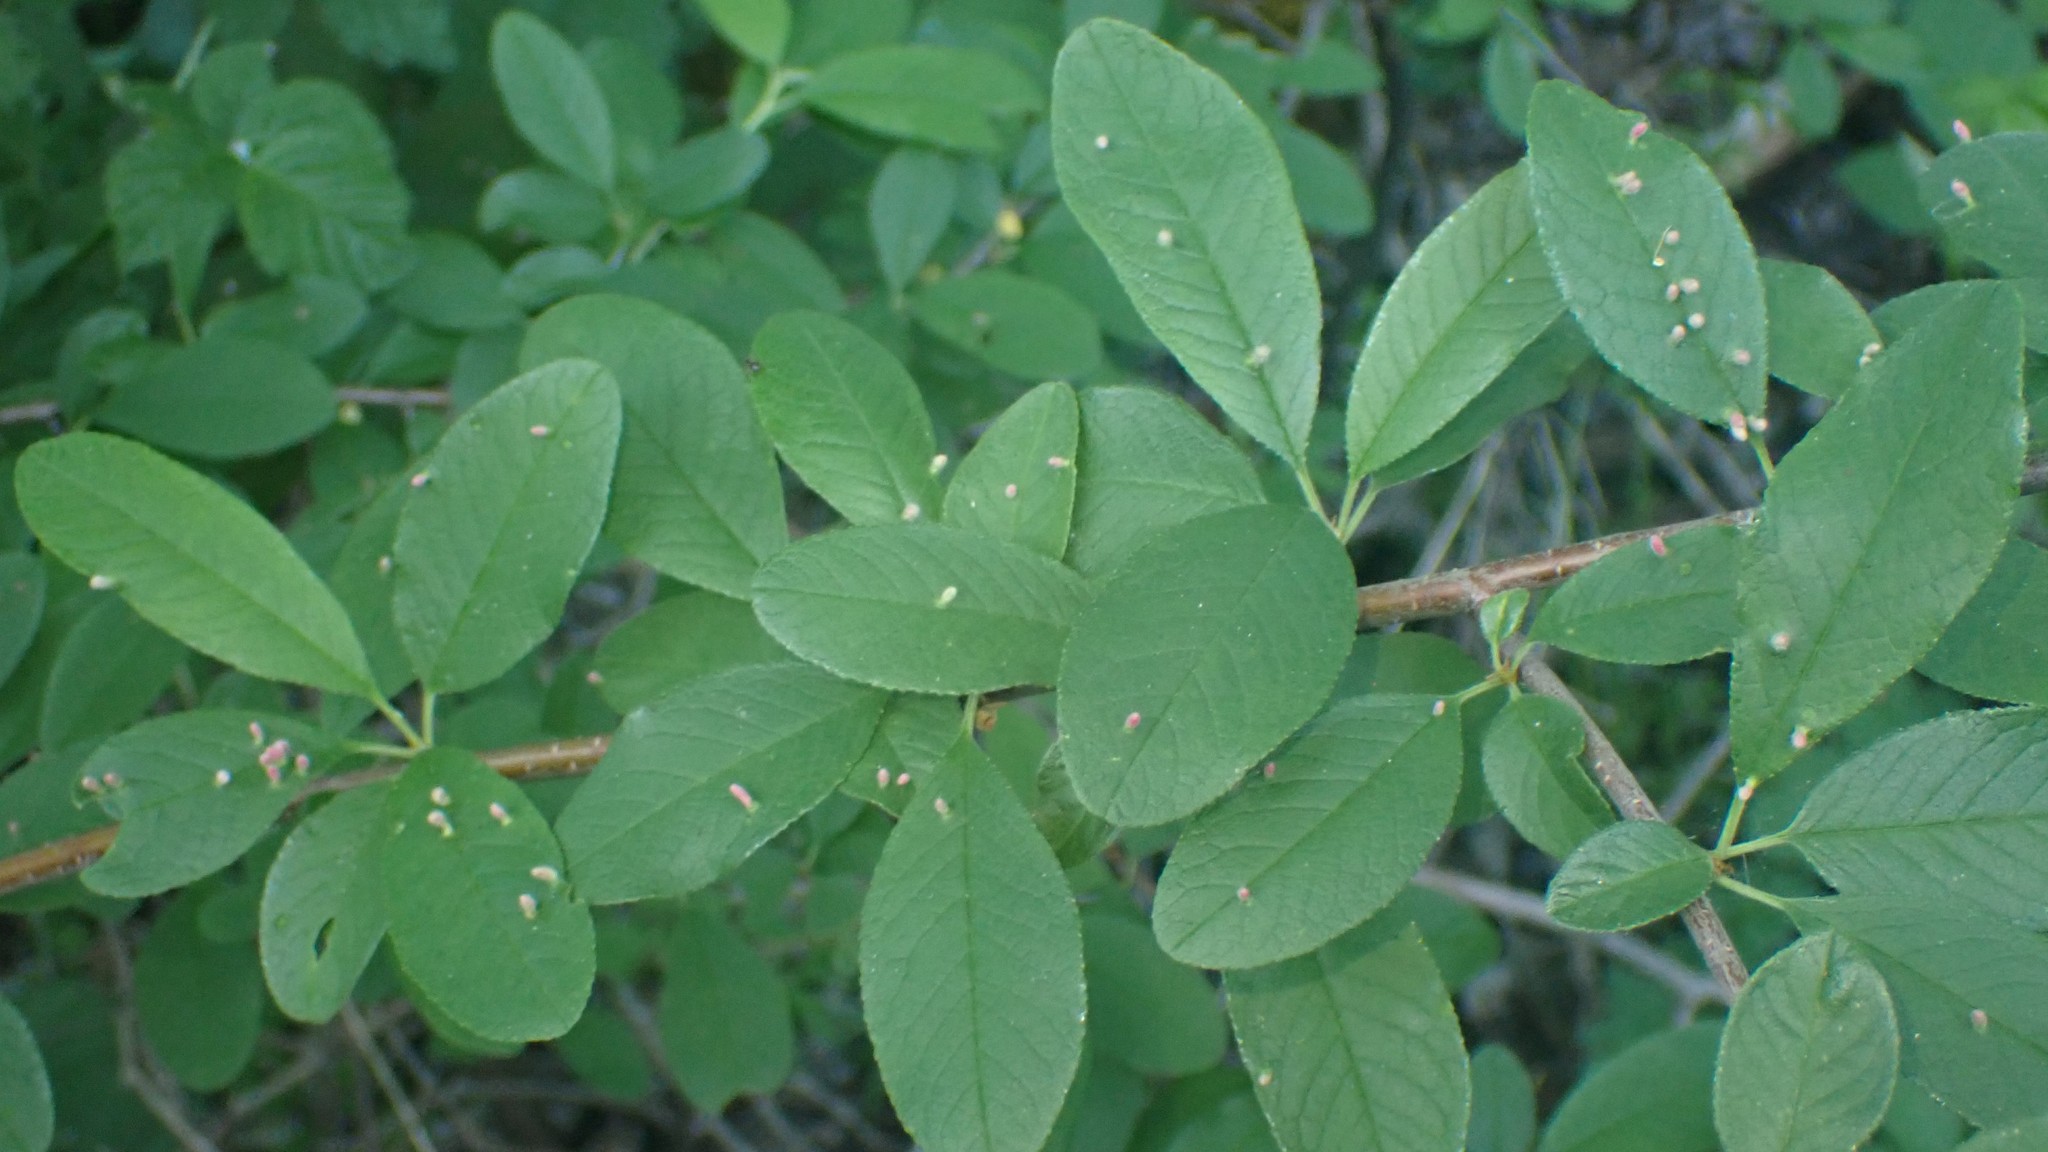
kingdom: Animalia
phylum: Arthropoda
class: Arachnida
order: Trombidiformes
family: Eriophyidae
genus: Eriophyes
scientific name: Eriophyes emarginatae
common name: Plum leaf gall mite
